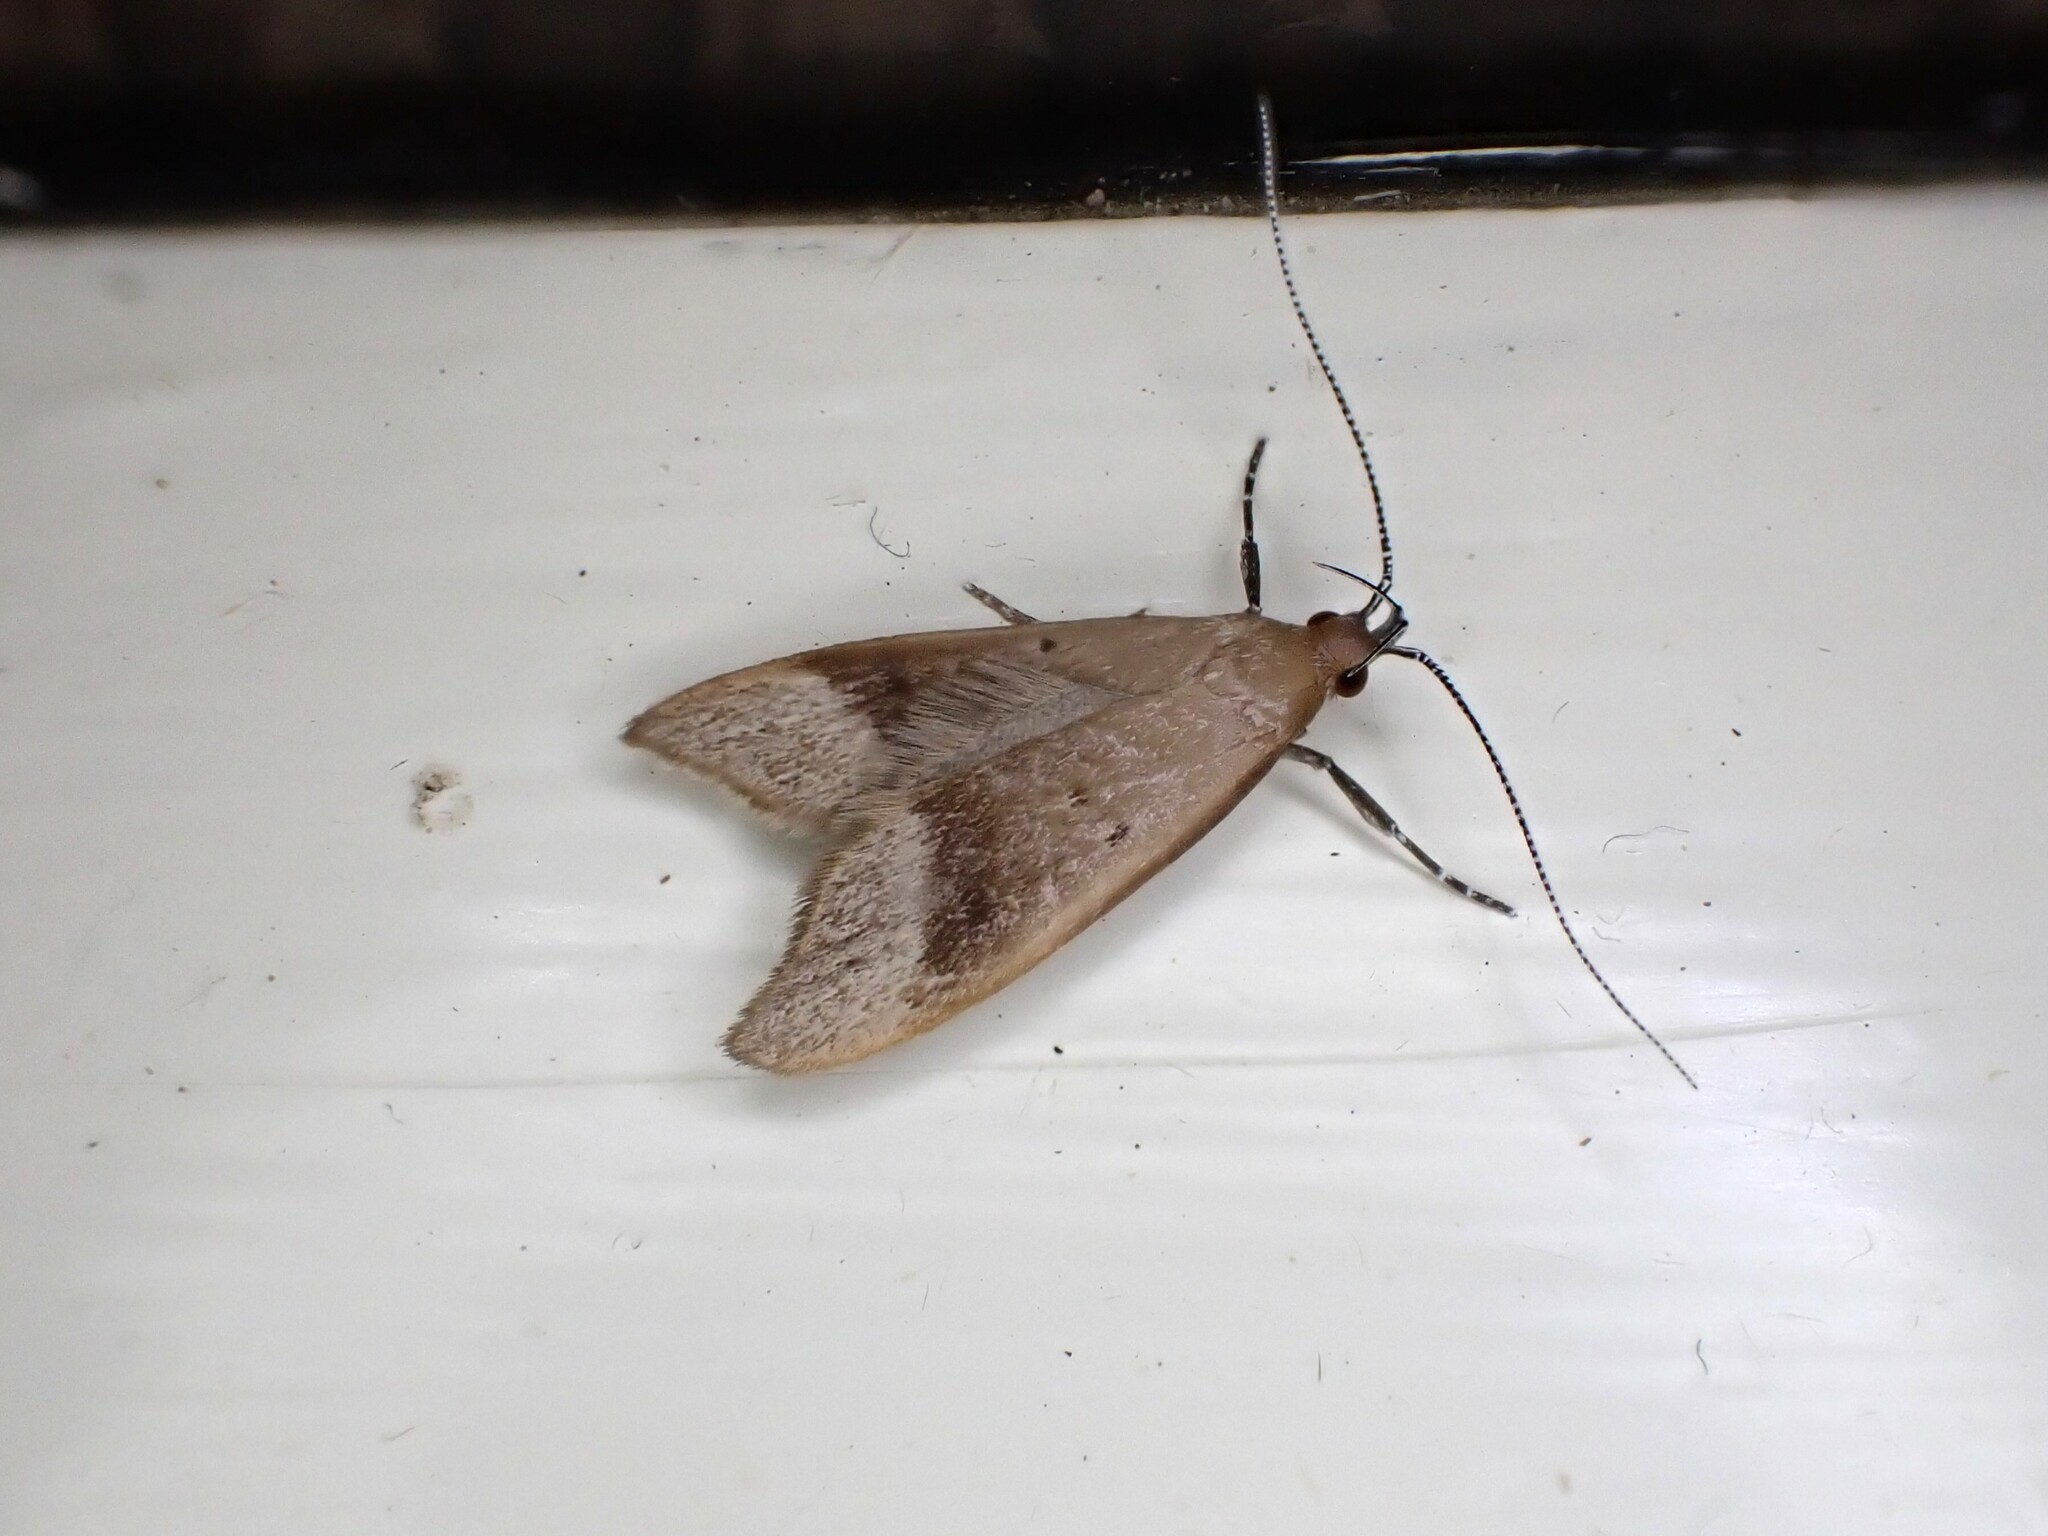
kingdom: Animalia
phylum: Arthropoda
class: Insecta
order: Lepidoptera
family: Oecophoridae
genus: Gymnobathra
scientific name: Gymnobathra hyetodes
